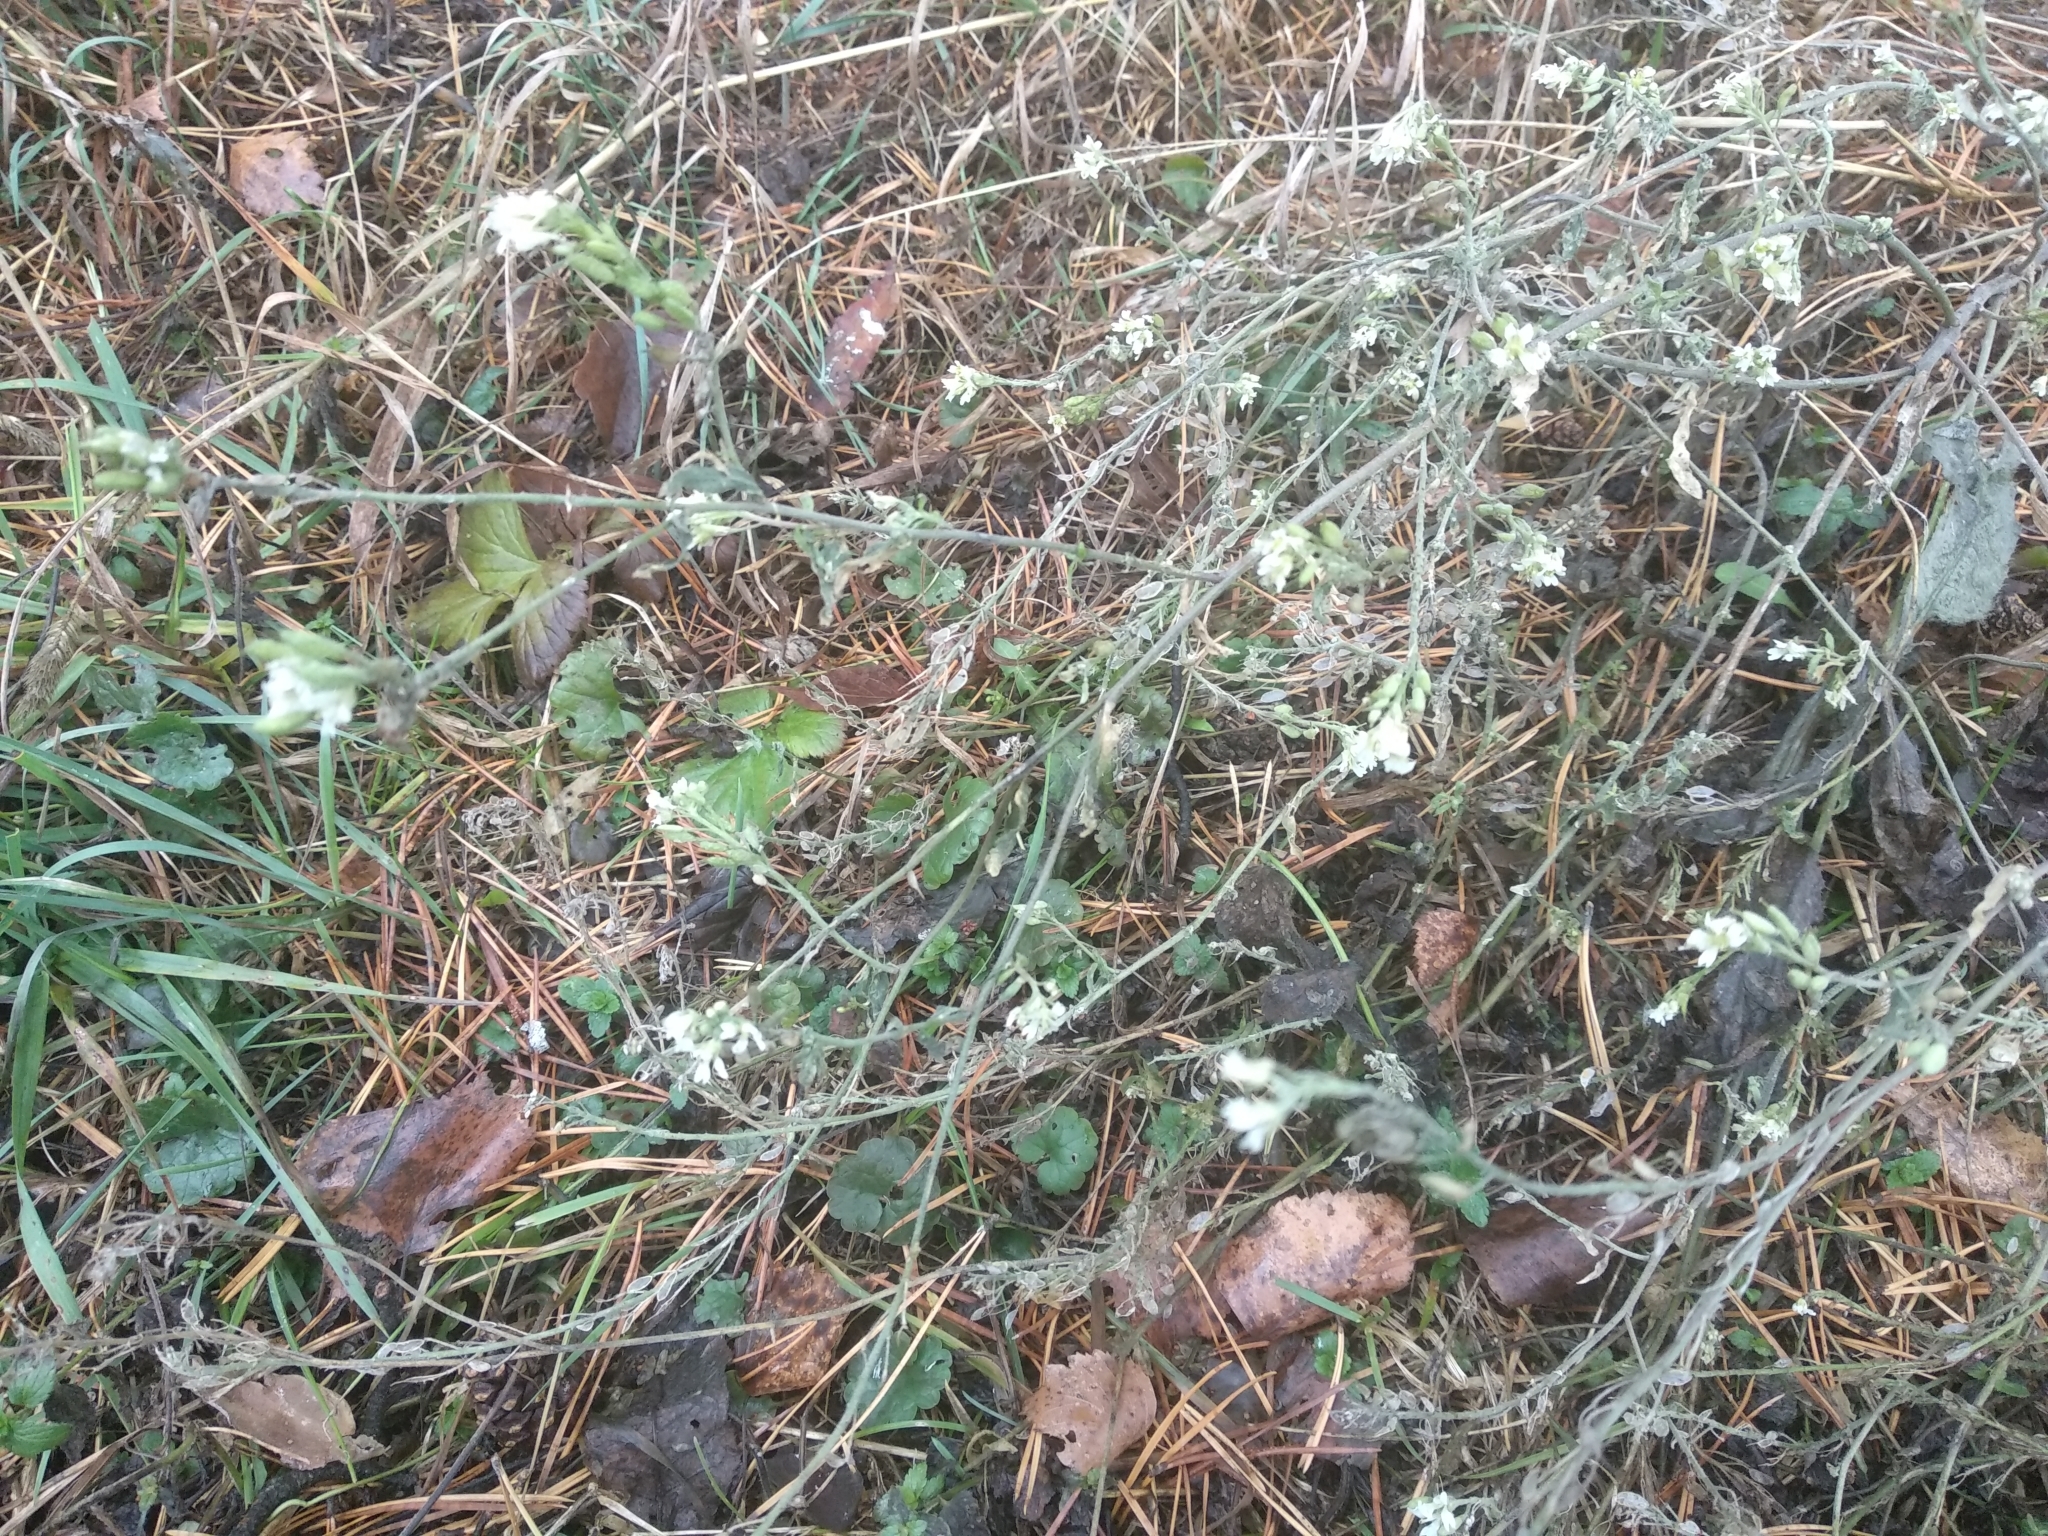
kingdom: Plantae
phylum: Tracheophyta
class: Magnoliopsida
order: Brassicales
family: Brassicaceae
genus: Berteroa
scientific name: Berteroa incana
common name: Hoary alison
